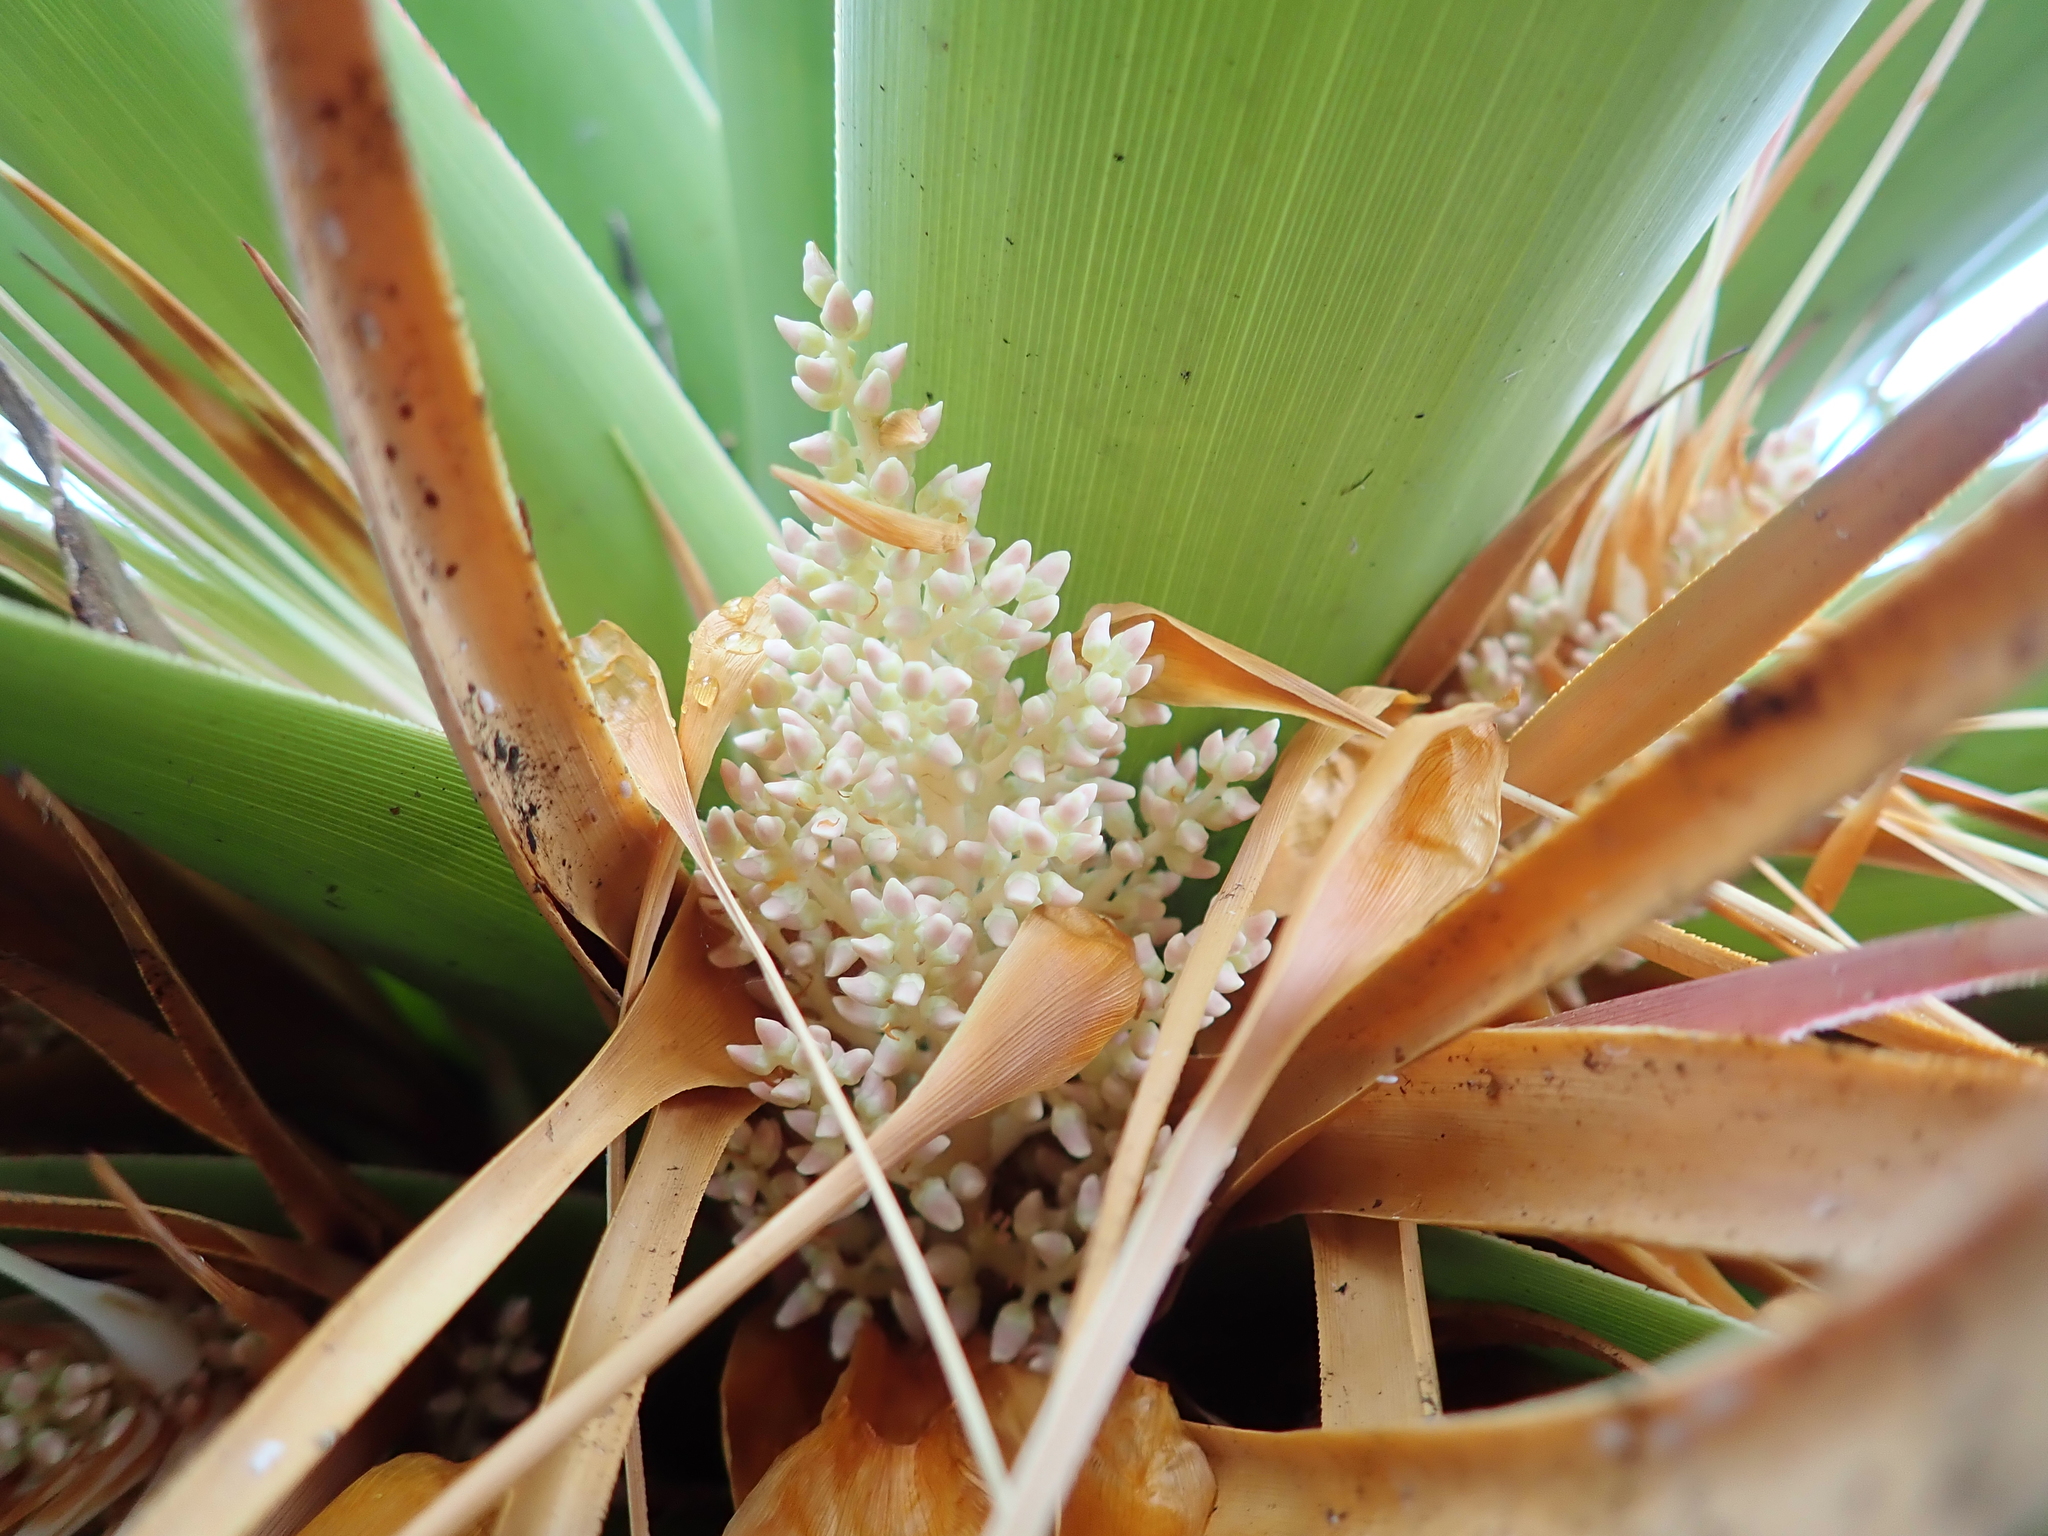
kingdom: Plantae
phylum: Tracheophyta
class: Magnoliopsida
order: Ericales
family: Ericaceae
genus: Dracophyllum
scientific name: Dracophyllum pandanifolium
